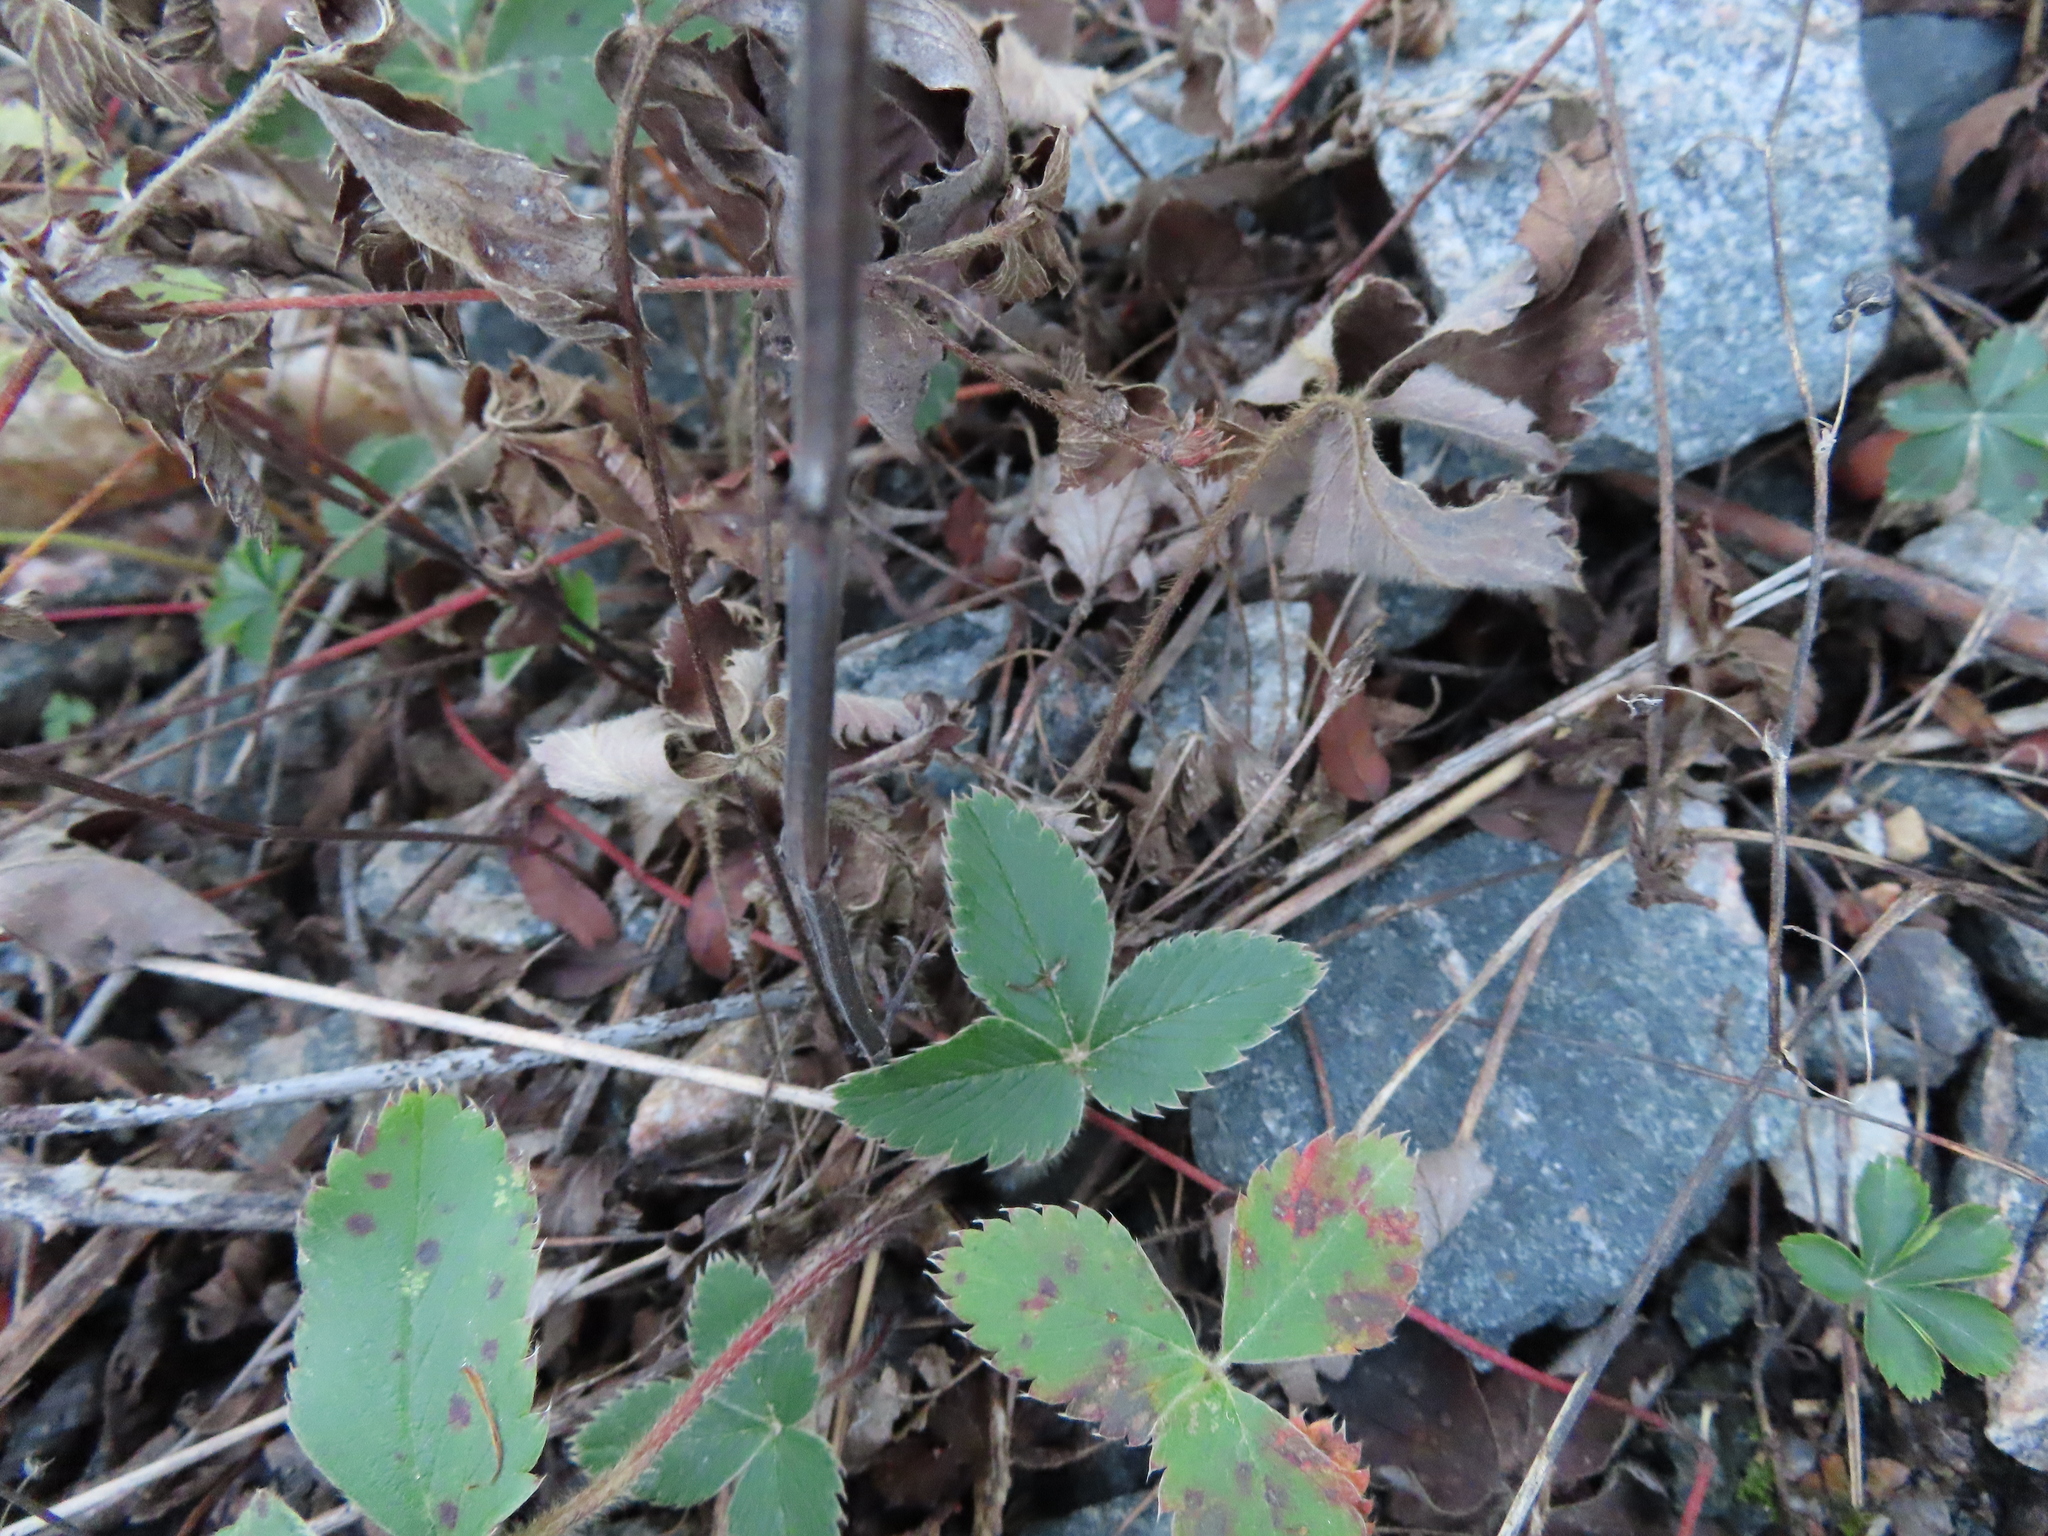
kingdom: Plantae
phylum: Tracheophyta
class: Magnoliopsida
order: Rosales
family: Rosaceae
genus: Fragaria
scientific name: Fragaria virginiana
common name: Thickleaved wild strawberry
